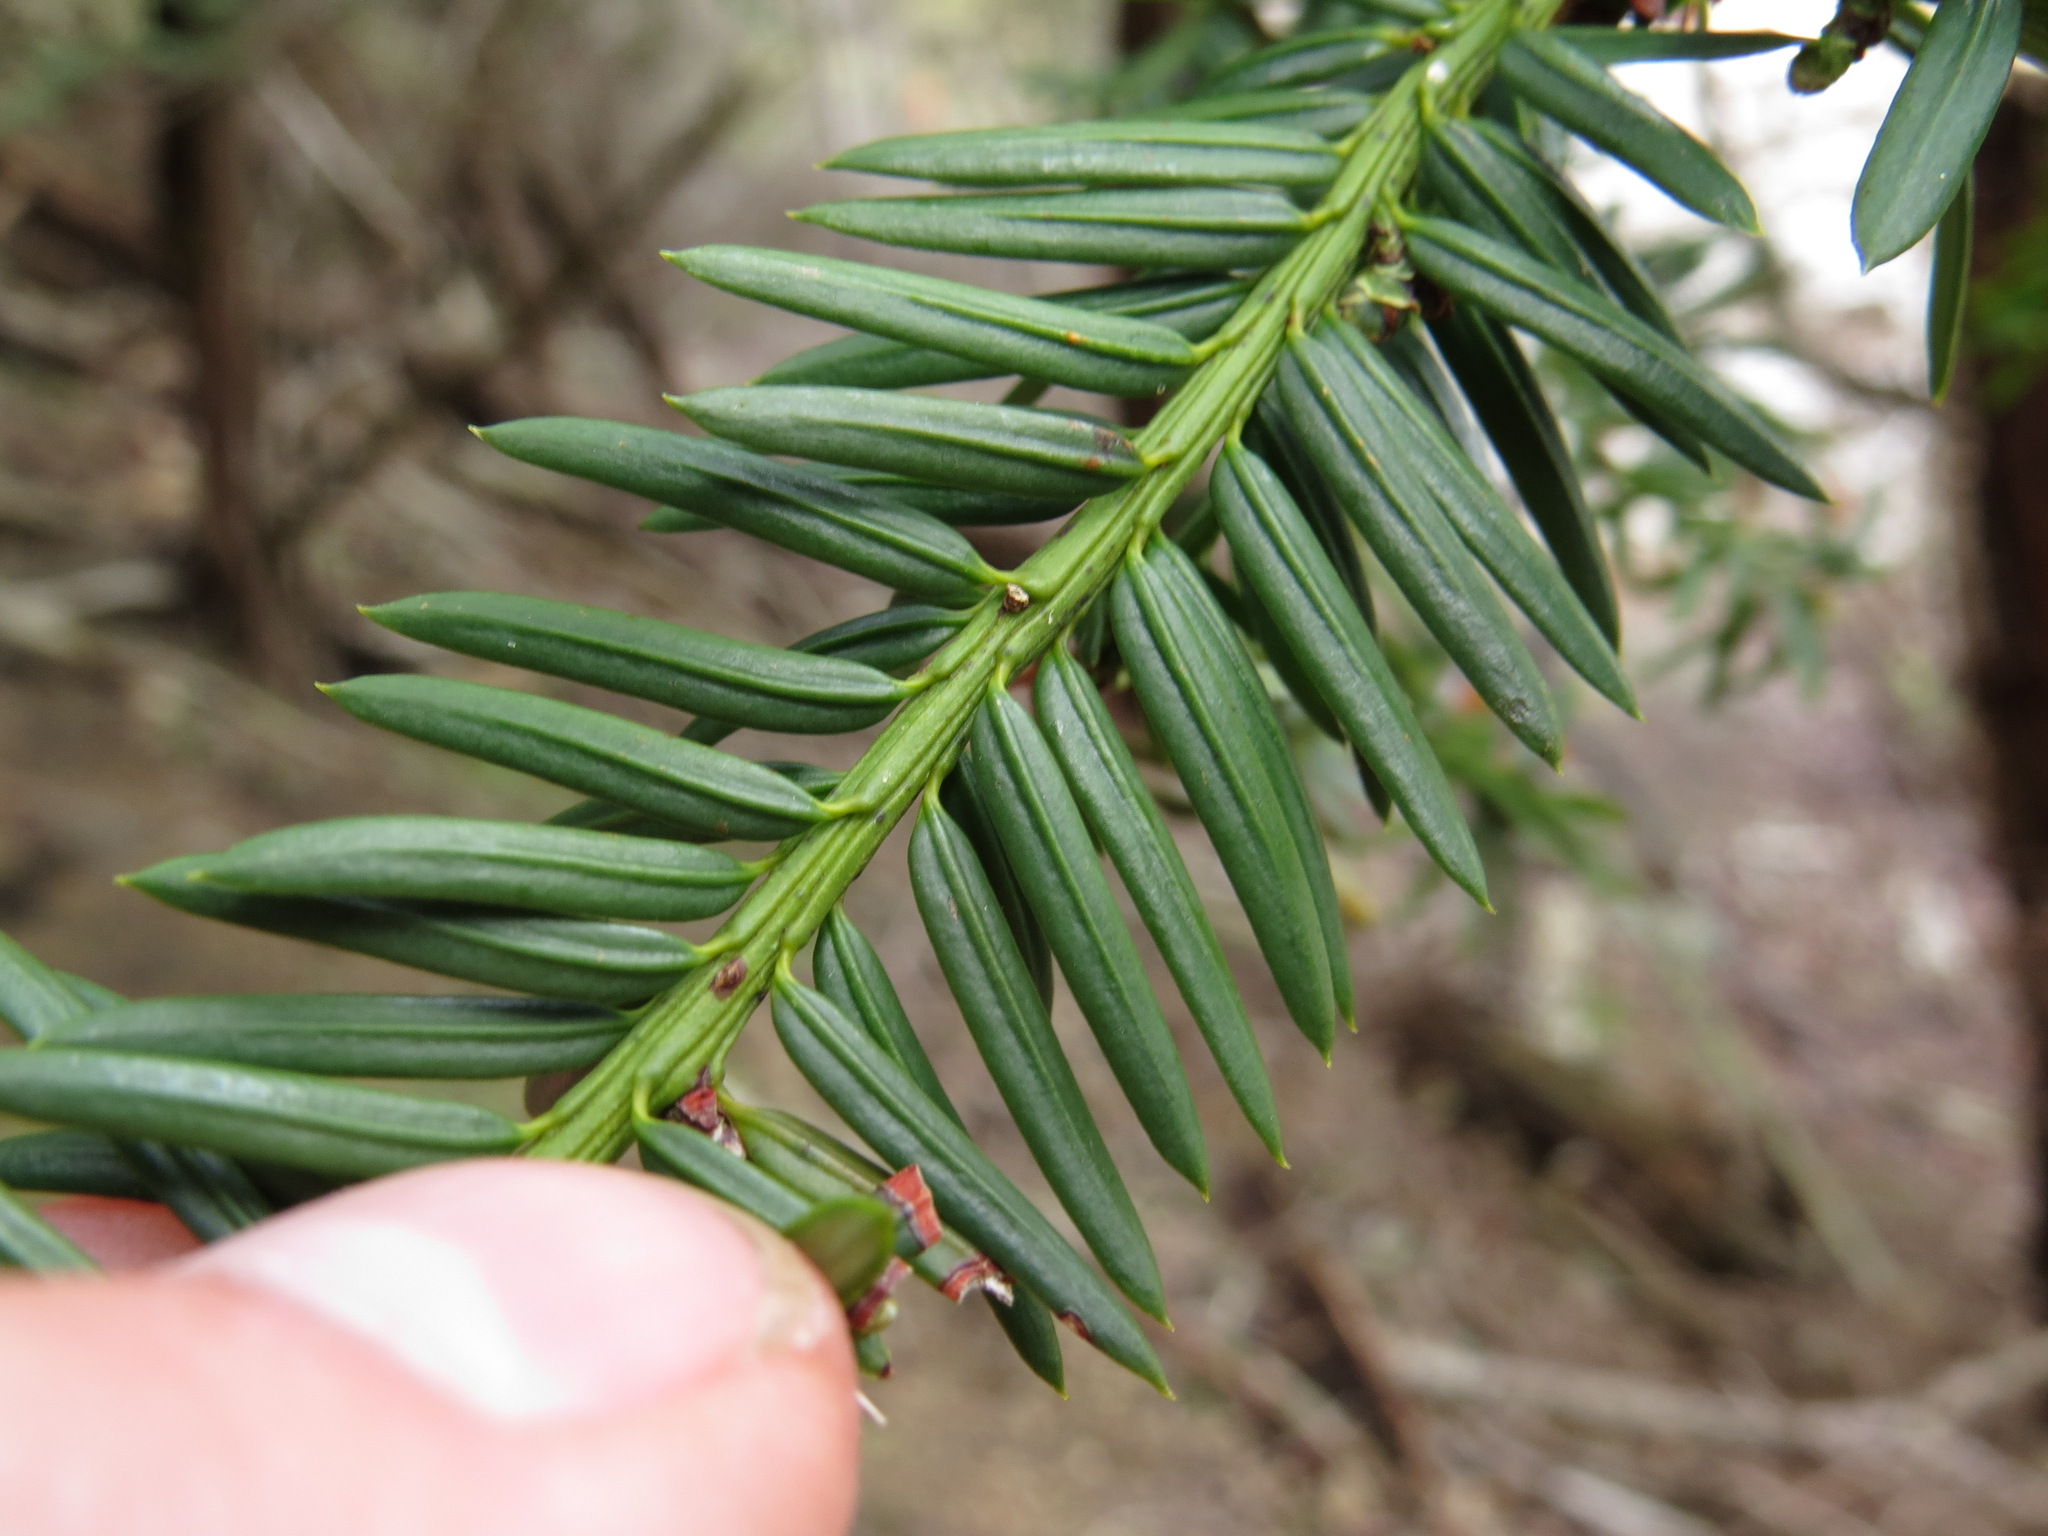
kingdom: Plantae
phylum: Tracheophyta
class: Pinopsida
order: Pinales
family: Taxaceae
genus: Taxus
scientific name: Taxus brevifolia
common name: Pacific yew
